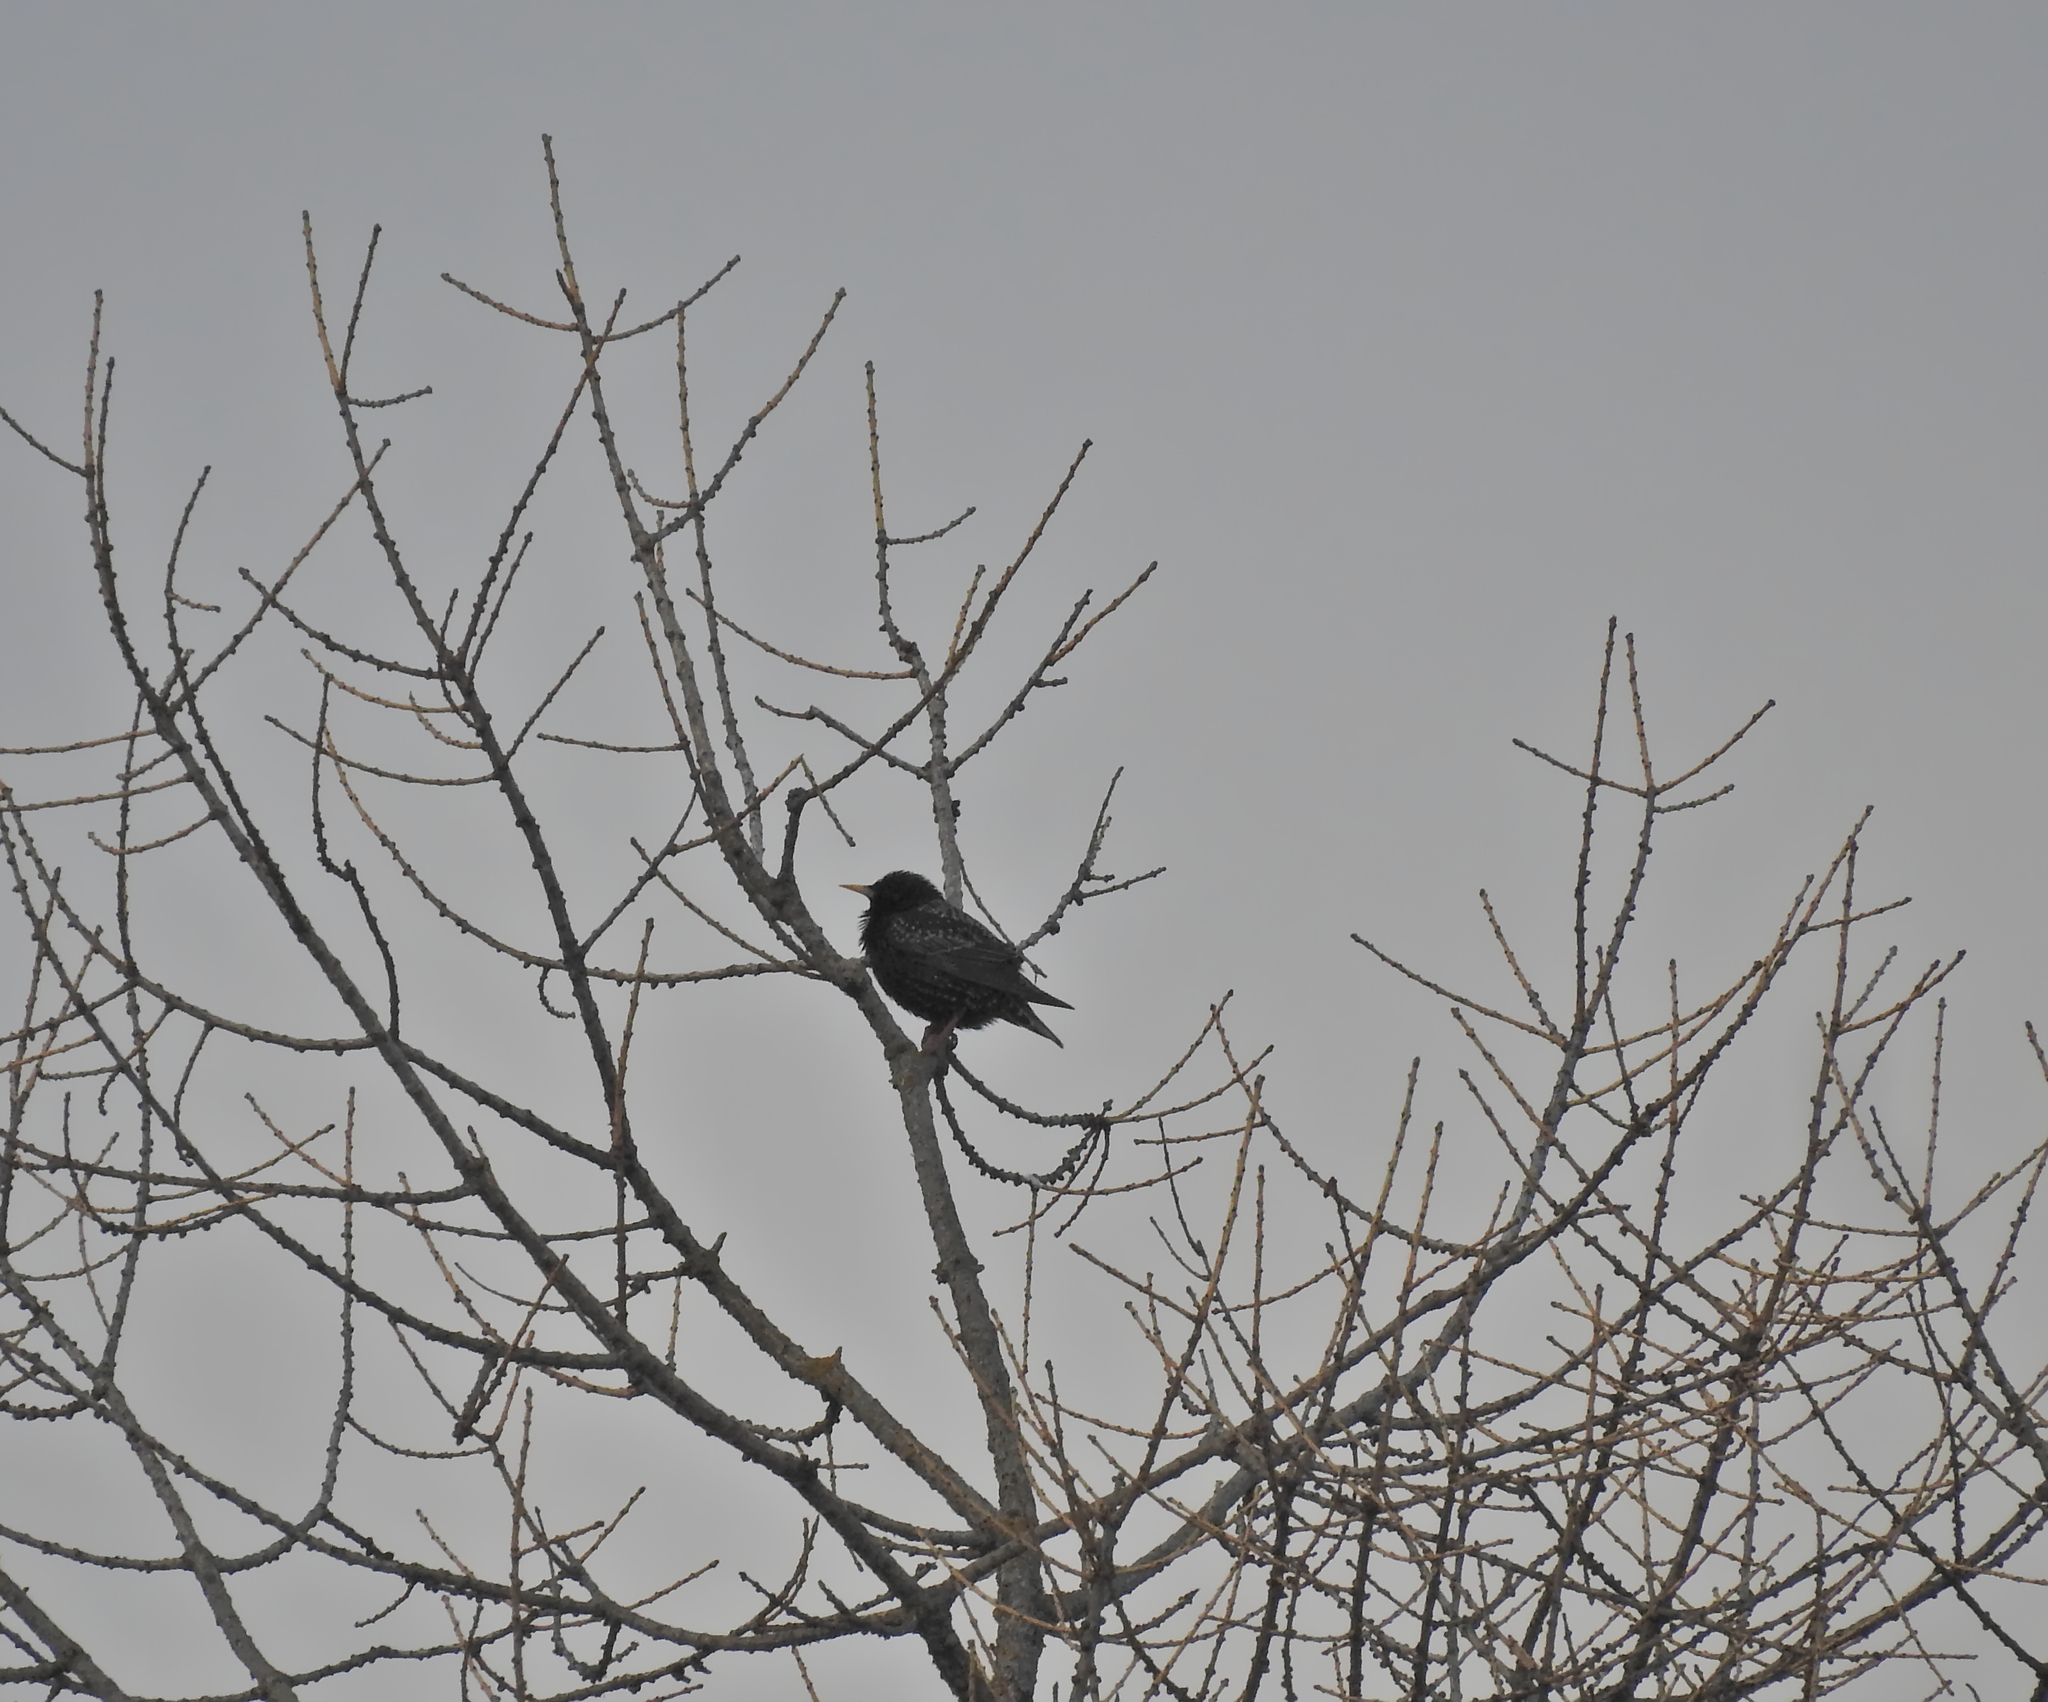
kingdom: Animalia
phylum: Chordata
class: Aves
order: Passeriformes
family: Sturnidae
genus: Sturnus
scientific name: Sturnus vulgaris
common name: Common starling
